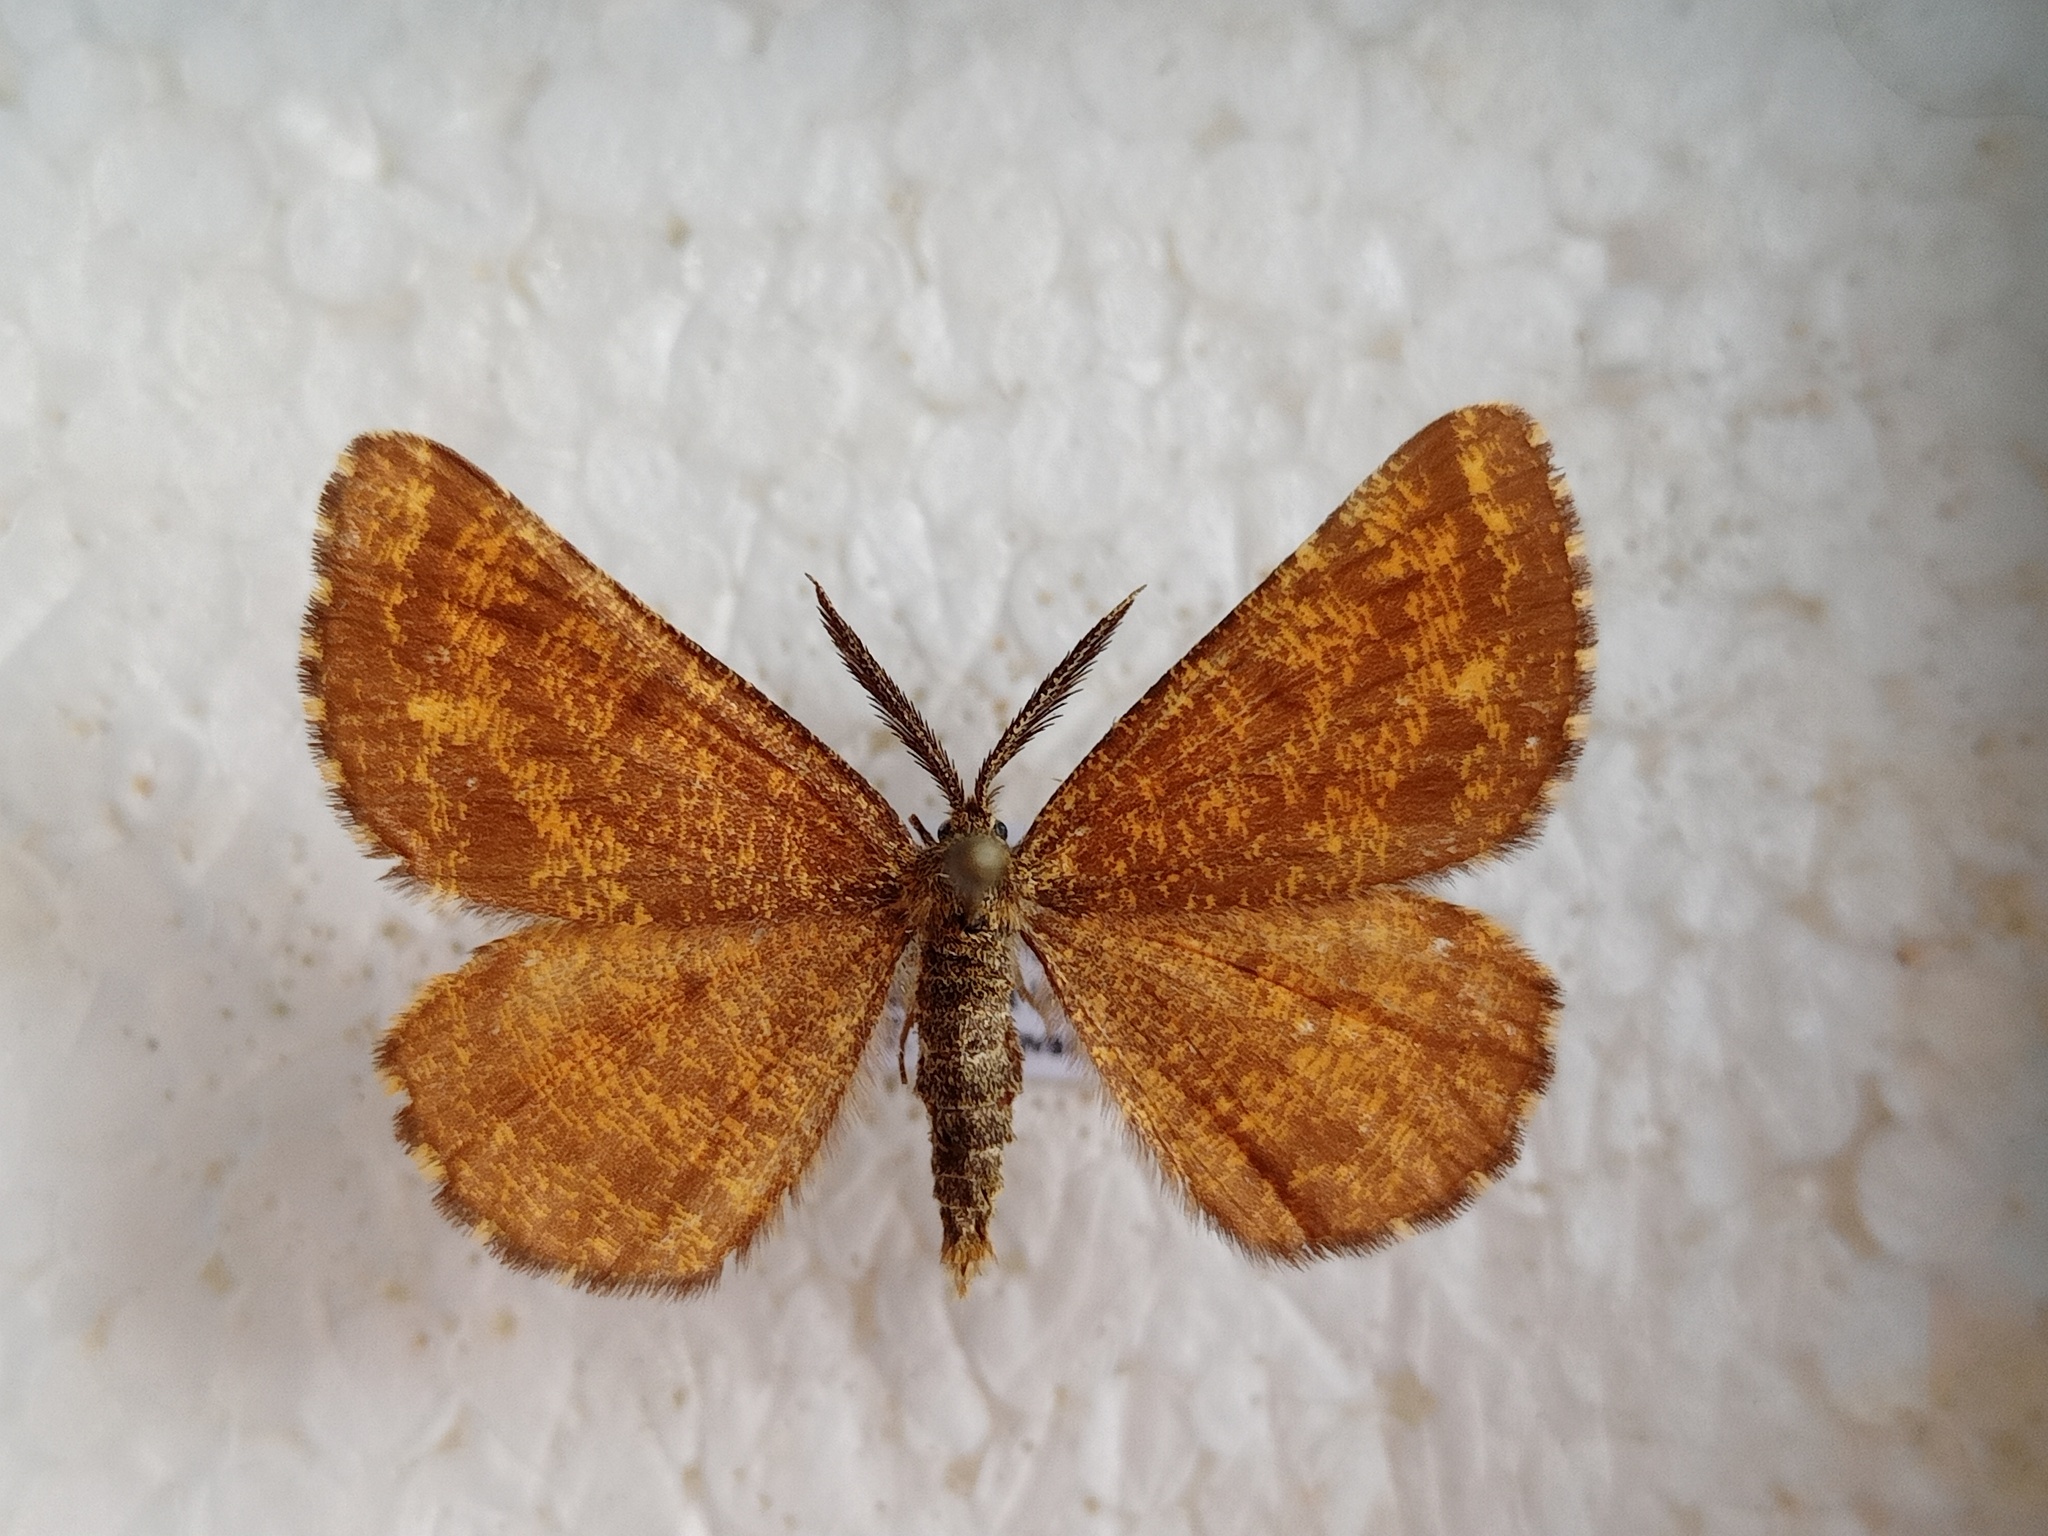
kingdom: Animalia
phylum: Arthropoda
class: Insecta
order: Lepidoptera
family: Geometridae
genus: Ematurga
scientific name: Ematurga atomaria
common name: Common heath
